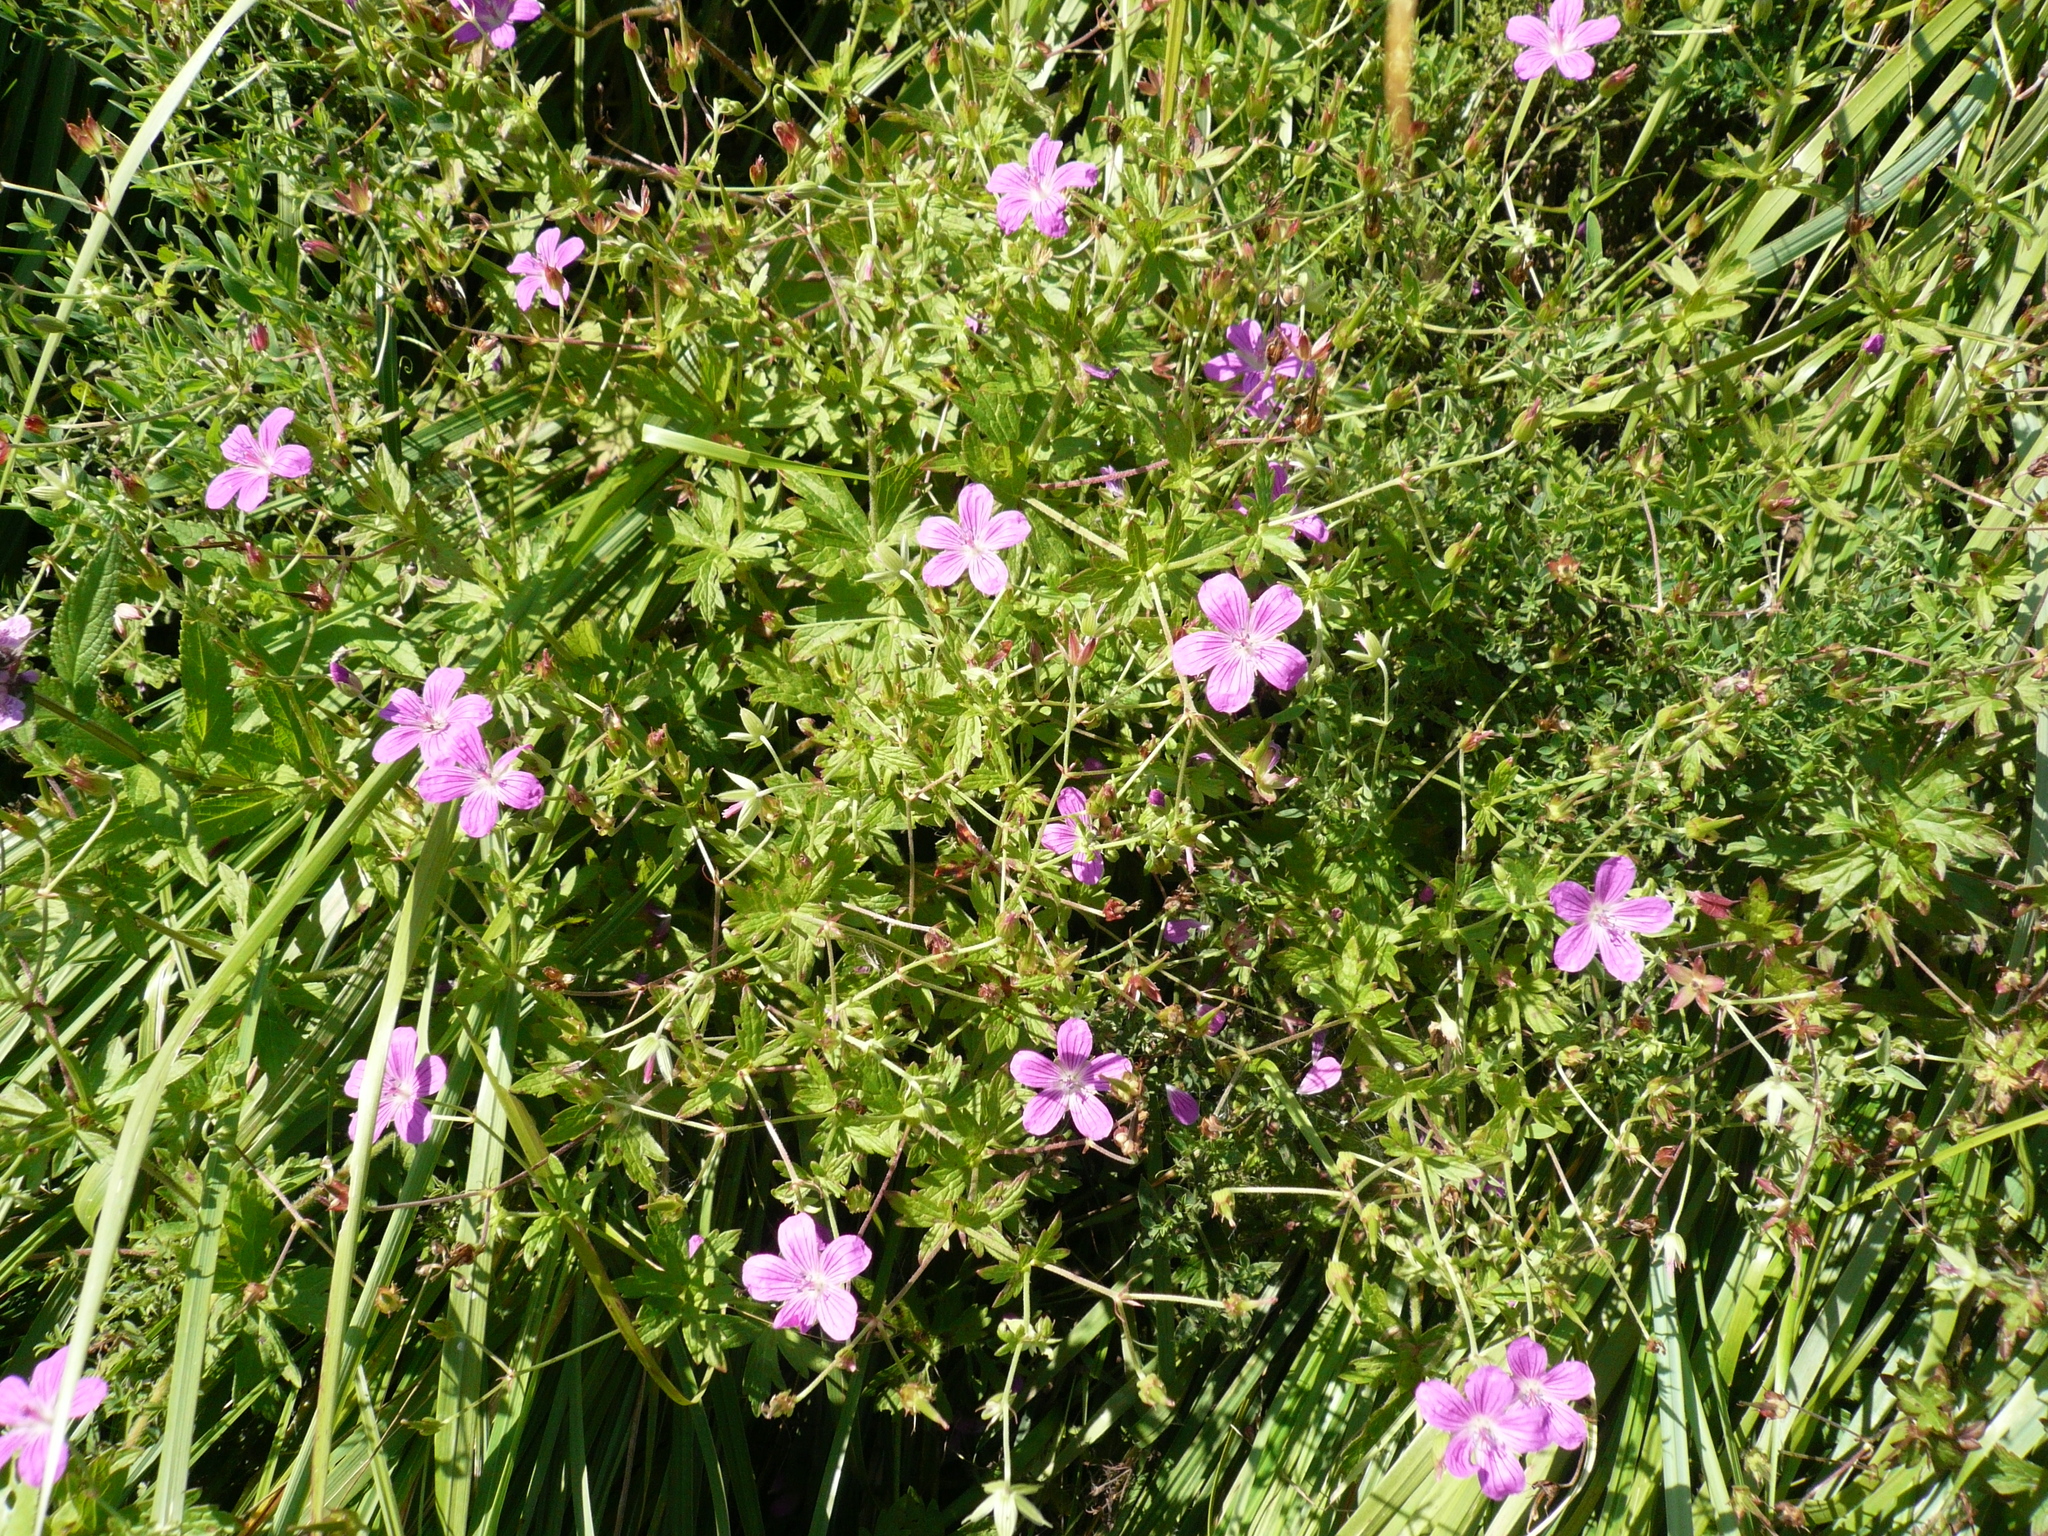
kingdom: Plantae
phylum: Tracheophyta
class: Magnoliopsida
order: Geraniales
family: Geraniaceae
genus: Geranium
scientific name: Geranium palustre
